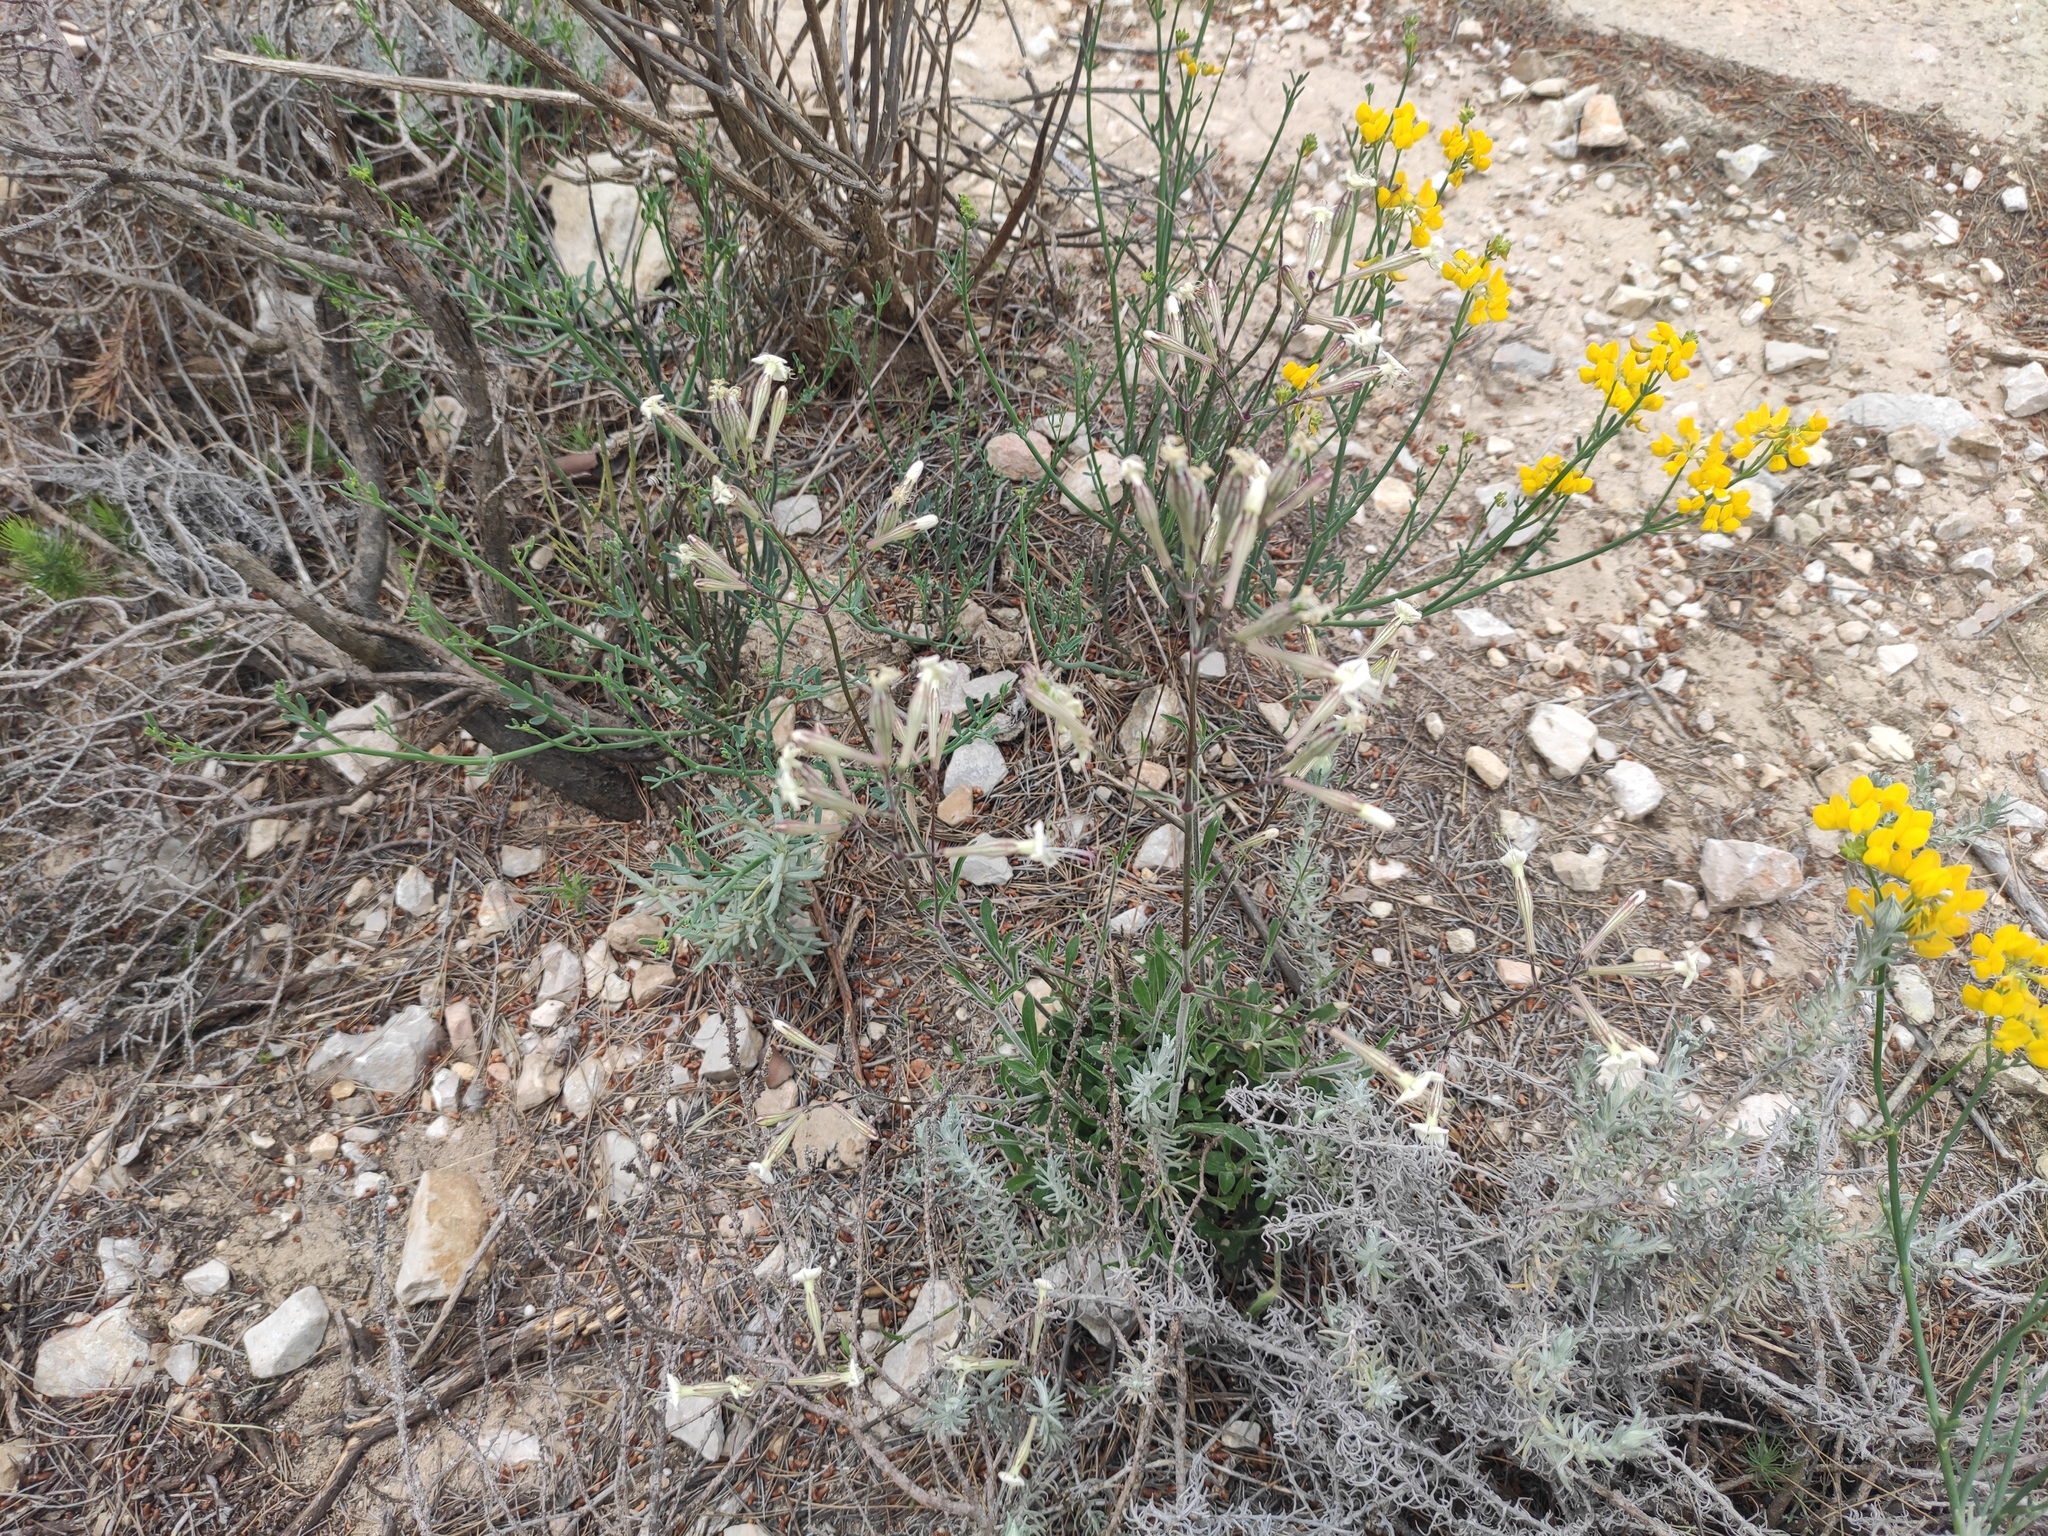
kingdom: Plantae
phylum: Tracheophyta
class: Magnoliopsida
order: Caryophyllales
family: Caryophyllaceae
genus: Silene
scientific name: Silene italica
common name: Italian catchfly
